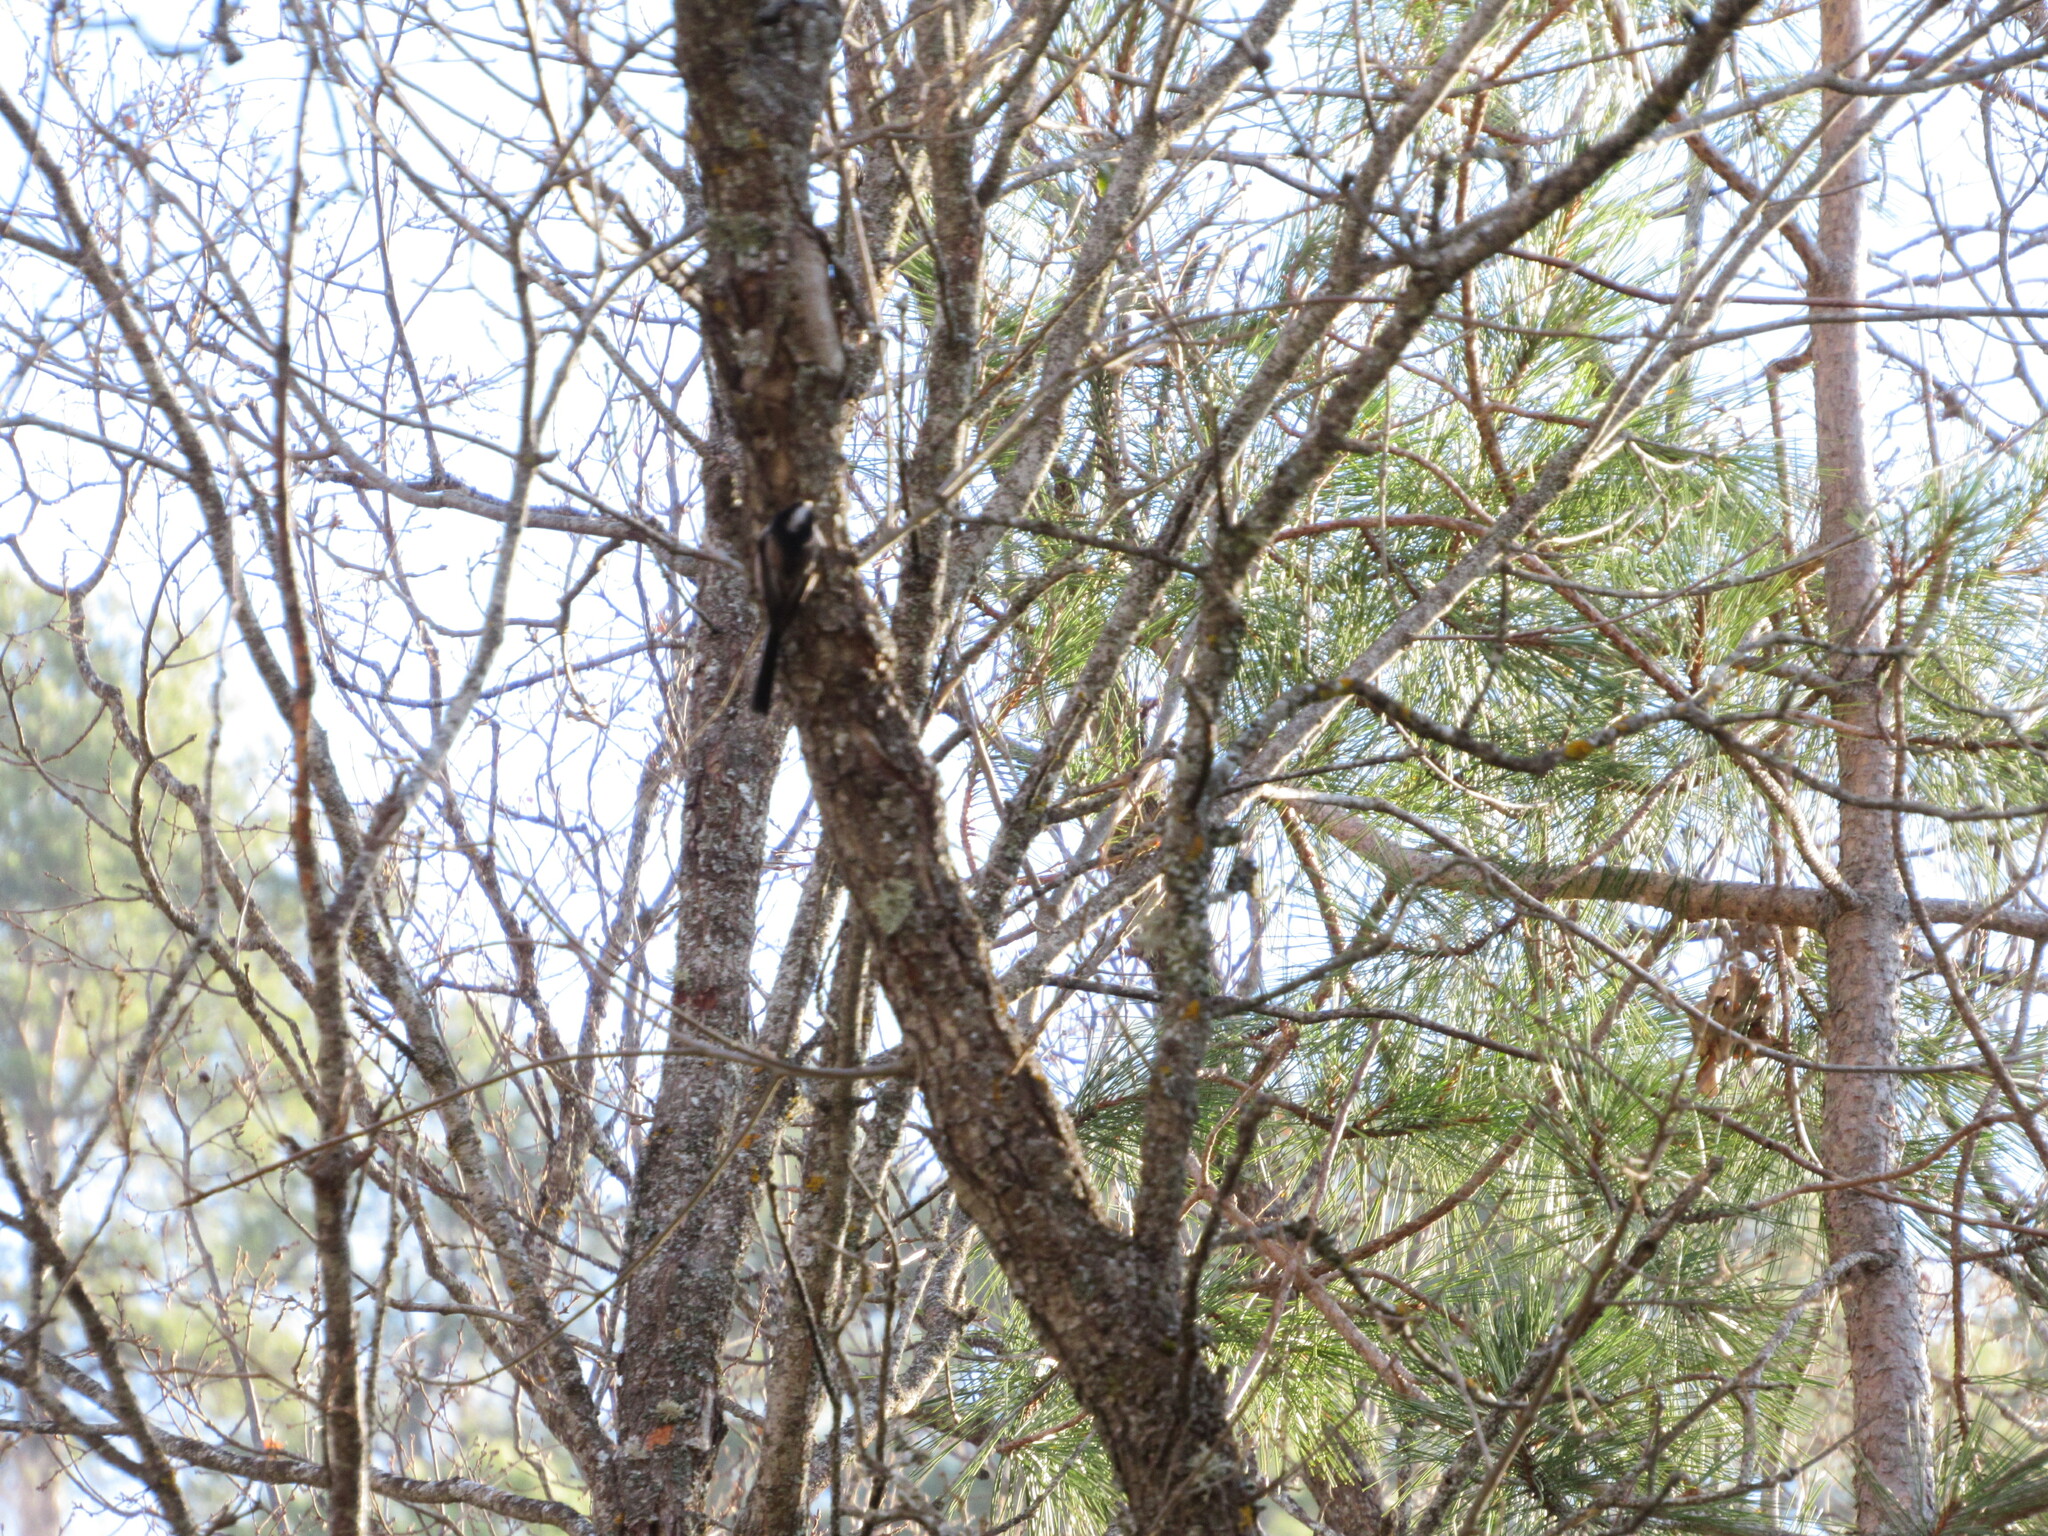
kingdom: Animalia
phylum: Chordata
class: Aves
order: Passeriformes
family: Aegithalidae
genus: Aegithalos
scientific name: Aegithalos caudatus
